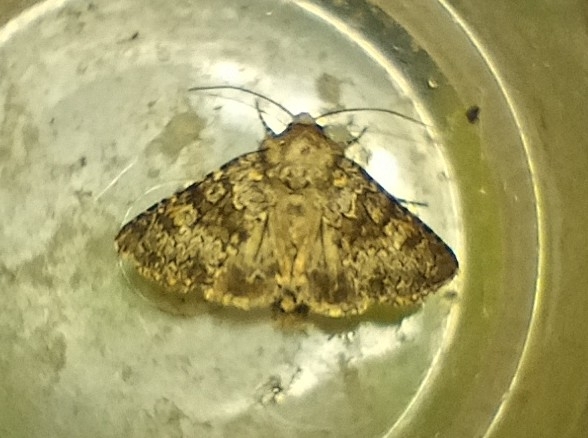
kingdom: Animalia
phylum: Arthropoda
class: Insecta
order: Lepidoptera
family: Noctuidae
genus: Hecatera
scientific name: Hecatera dysodea
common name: Small ranunculus
